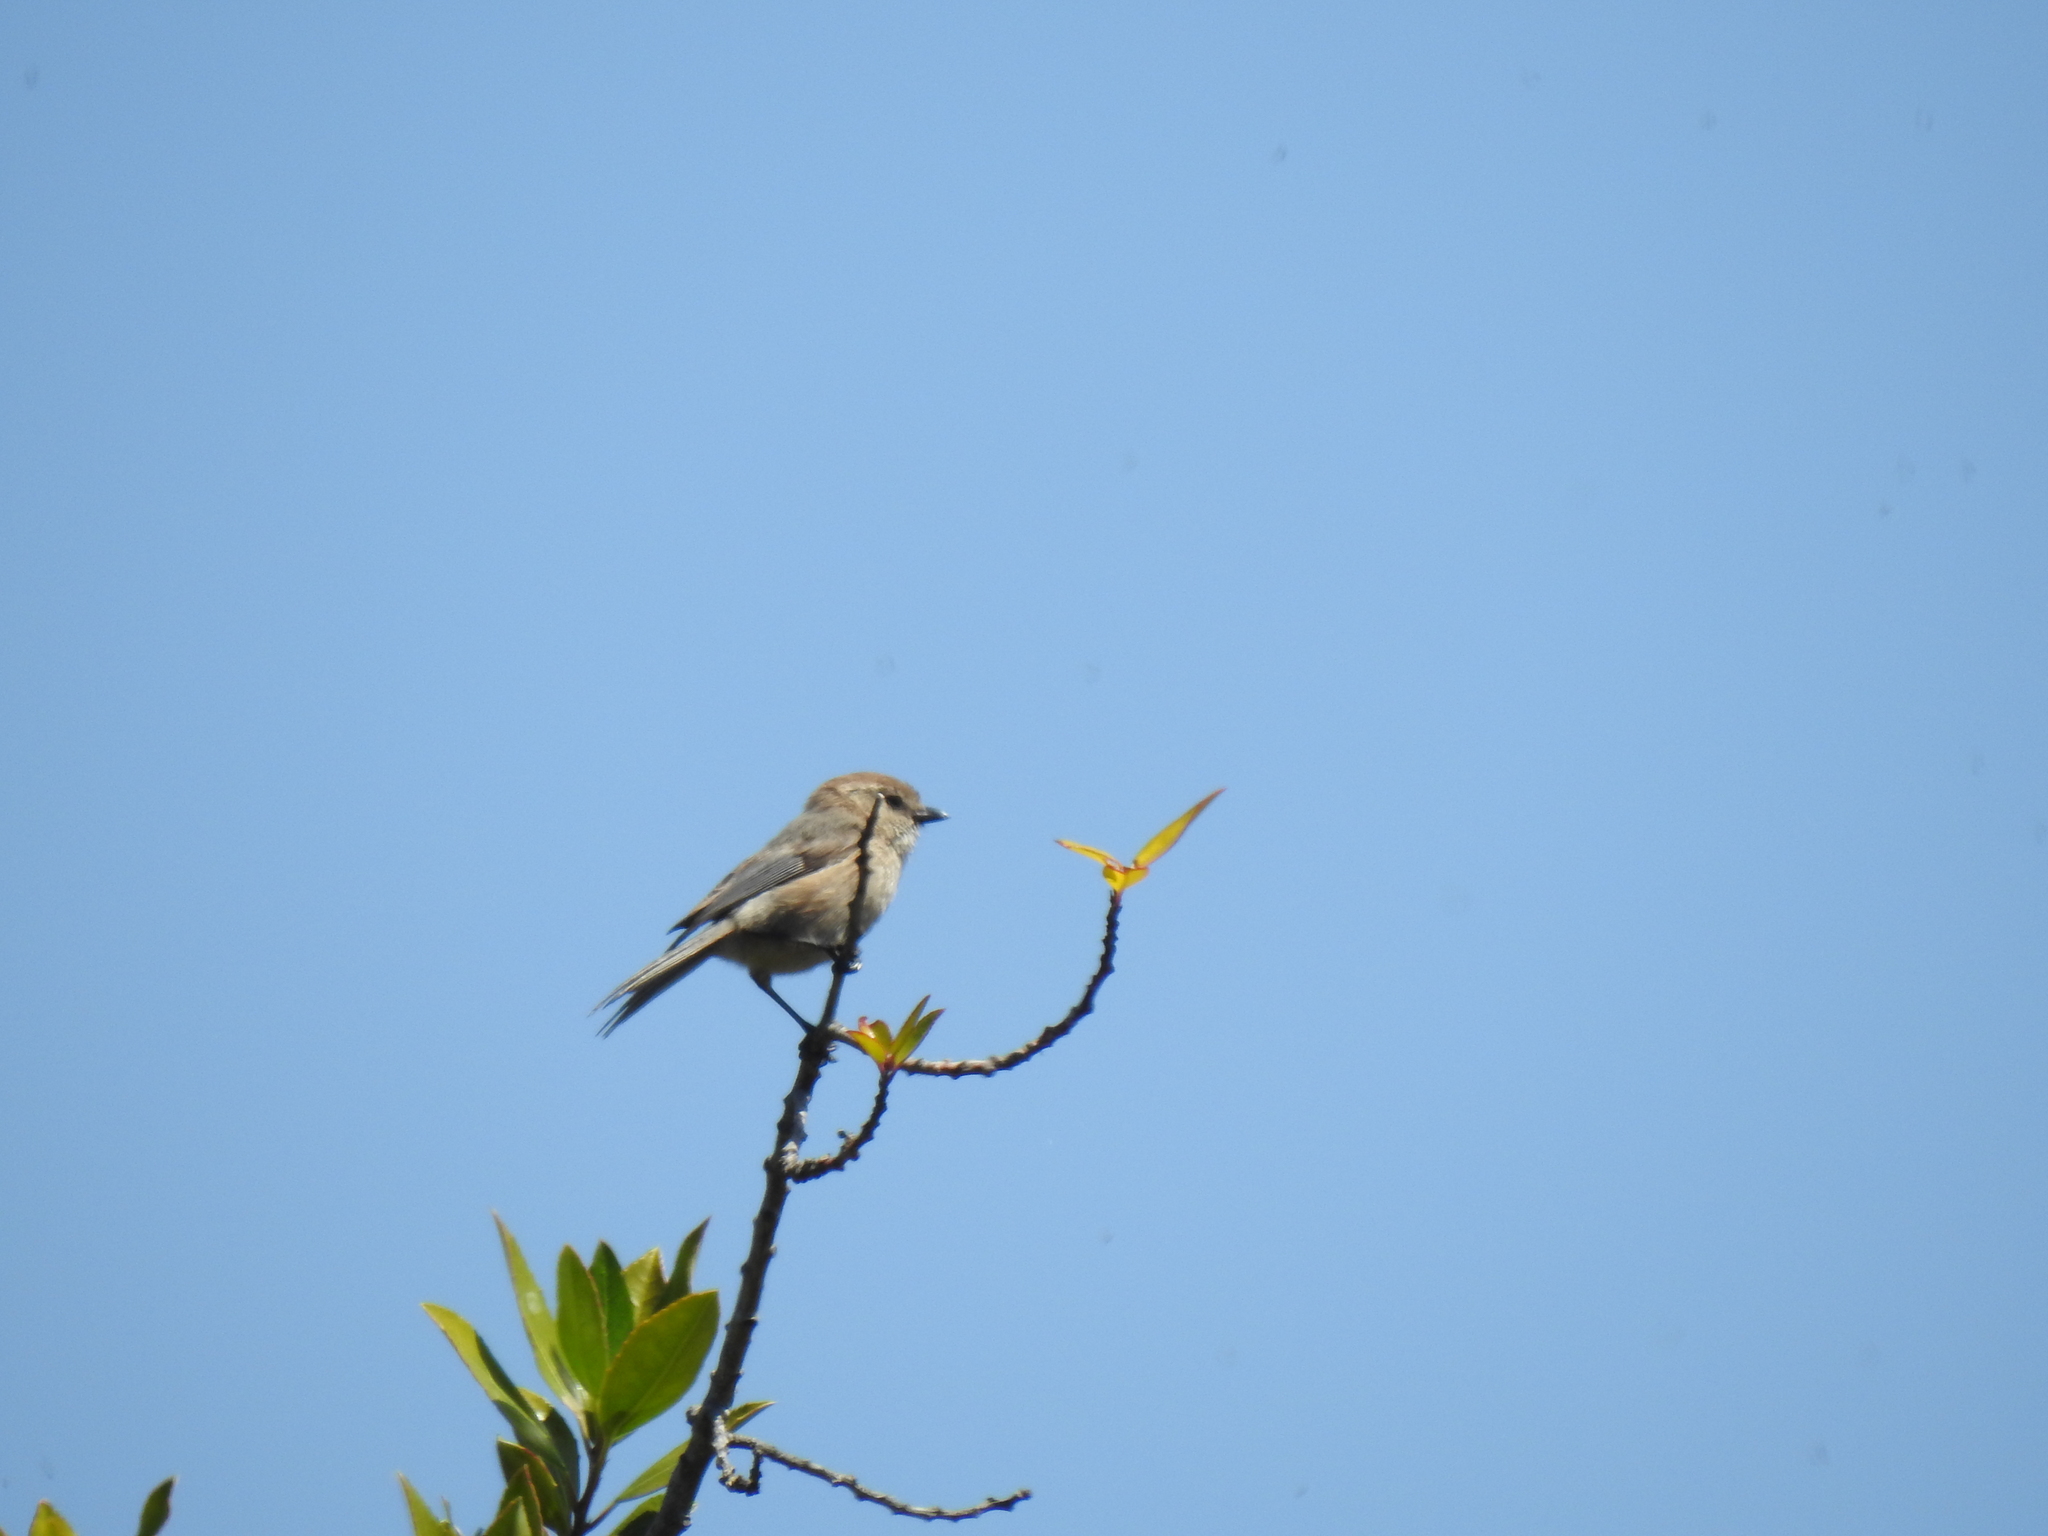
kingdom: Animalia
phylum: Chordata
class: Aves
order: Passeriformes
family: Aegithalidae
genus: Psaltriparus
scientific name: Psaltriparus minimus
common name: American bushtit
